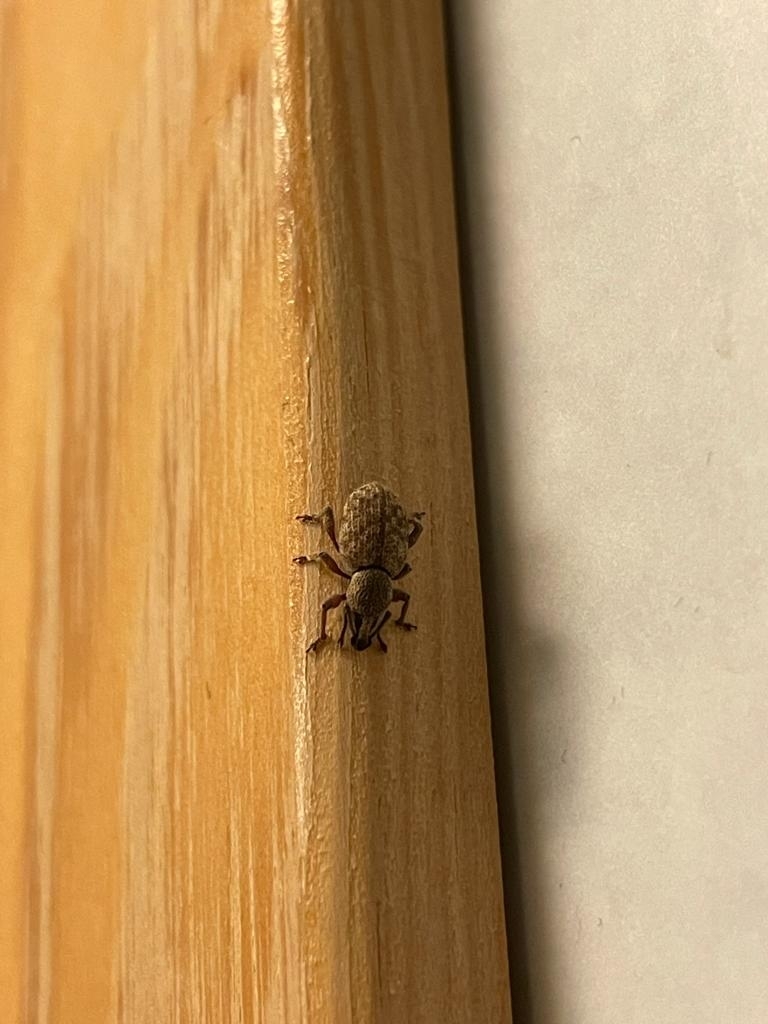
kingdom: Animalia
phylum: Arthropoda
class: Insecta
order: Coleoptera
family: Curculionidae
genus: Otiorhynchus
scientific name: Otiorhynchus singularis
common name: Clay-coloured weevil
